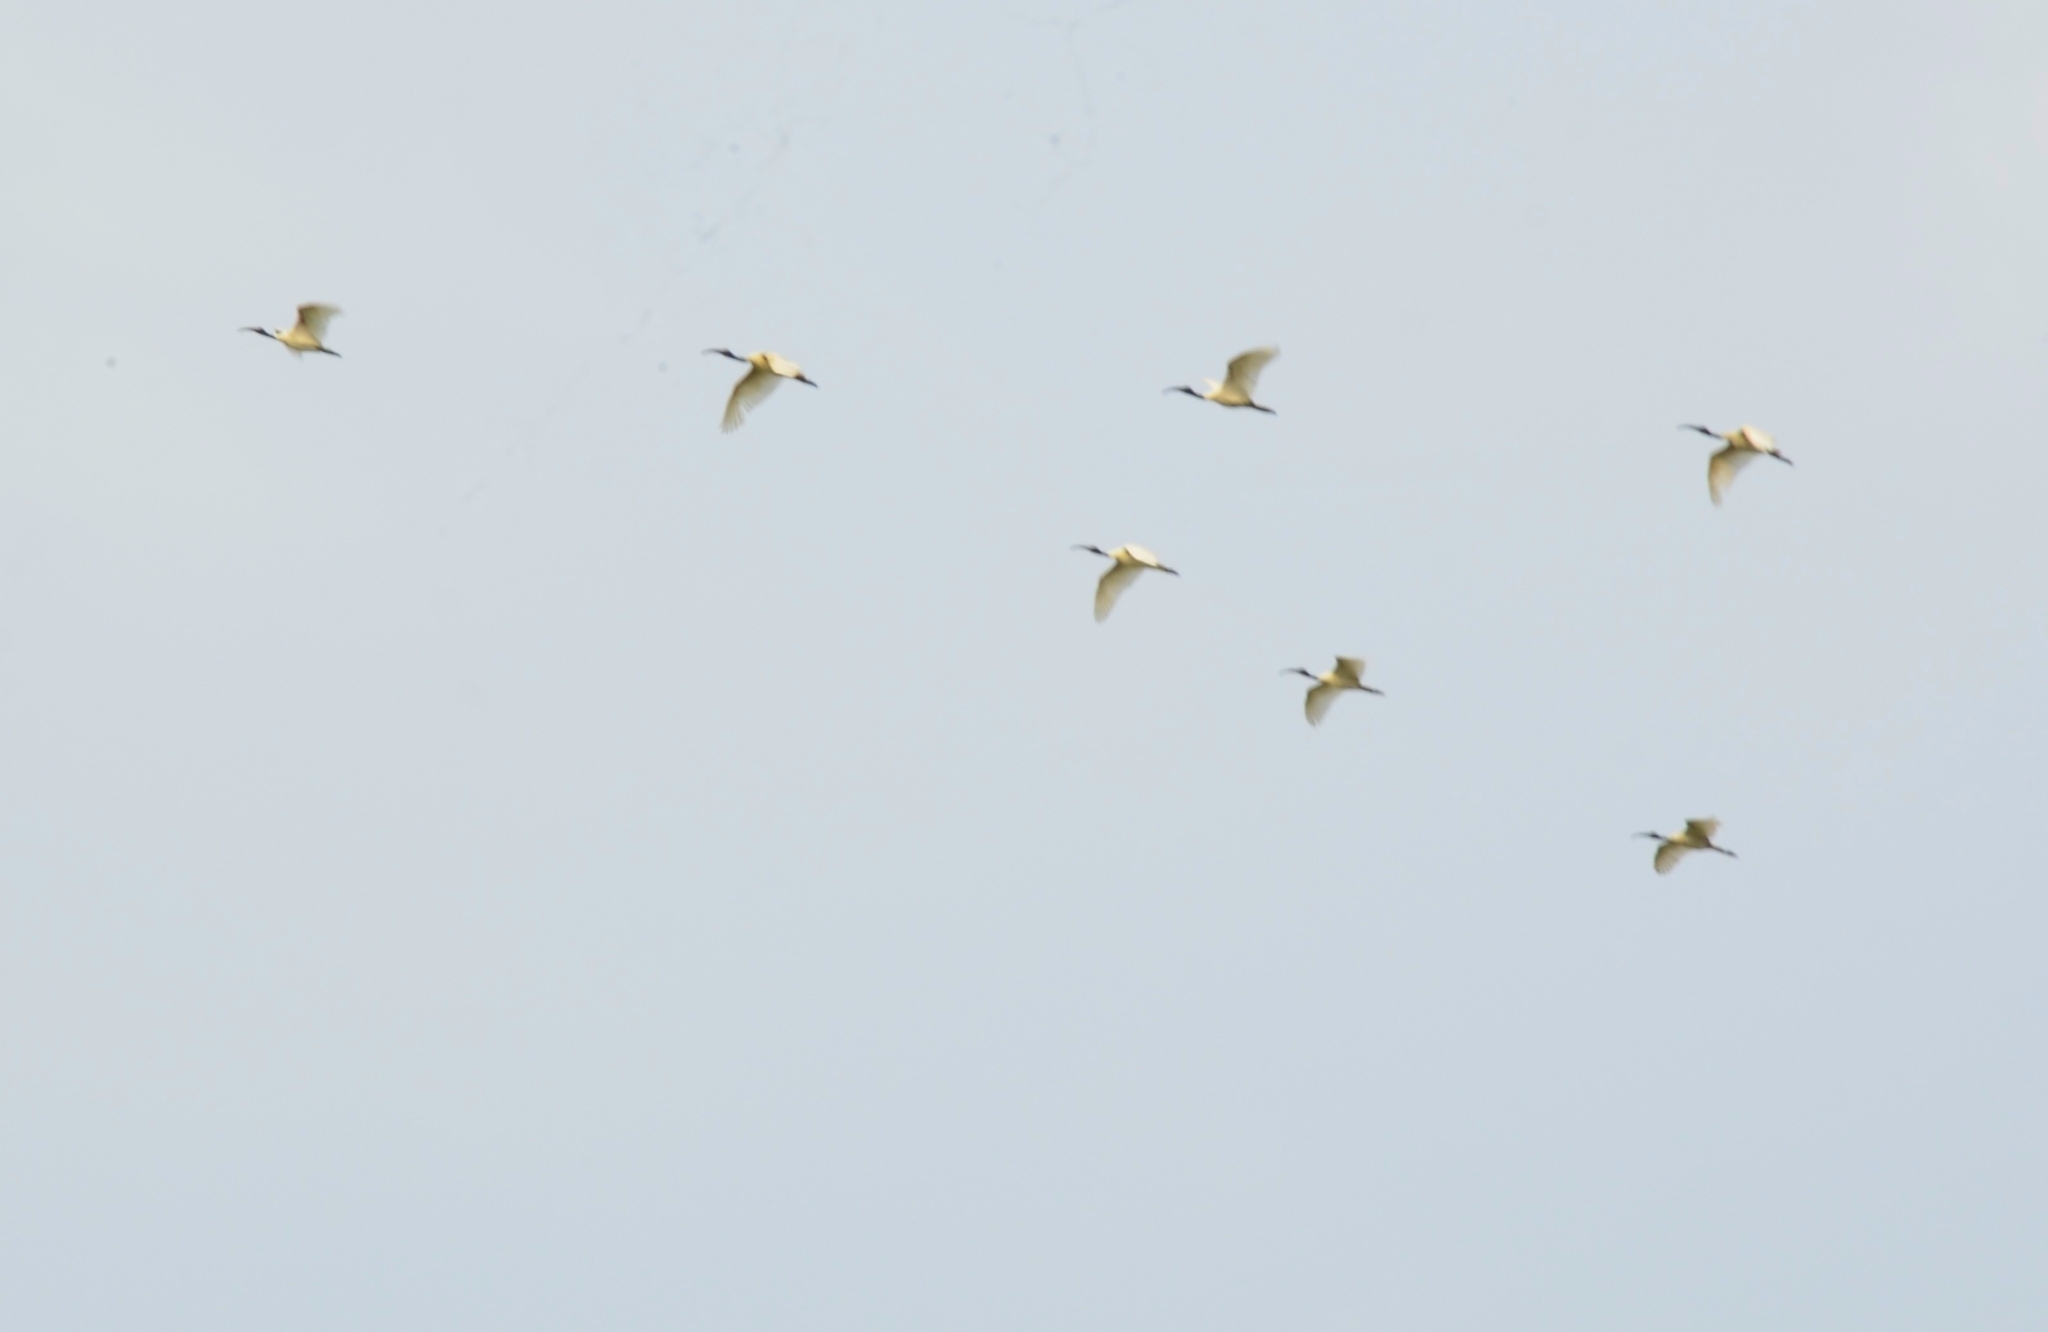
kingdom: Animalia
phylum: Chordata
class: Aves
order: Pelecaniformes
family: Threskiornithidae
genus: Threskiornis
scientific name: Threskiornis melanocephalus
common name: Black-headed ibis
